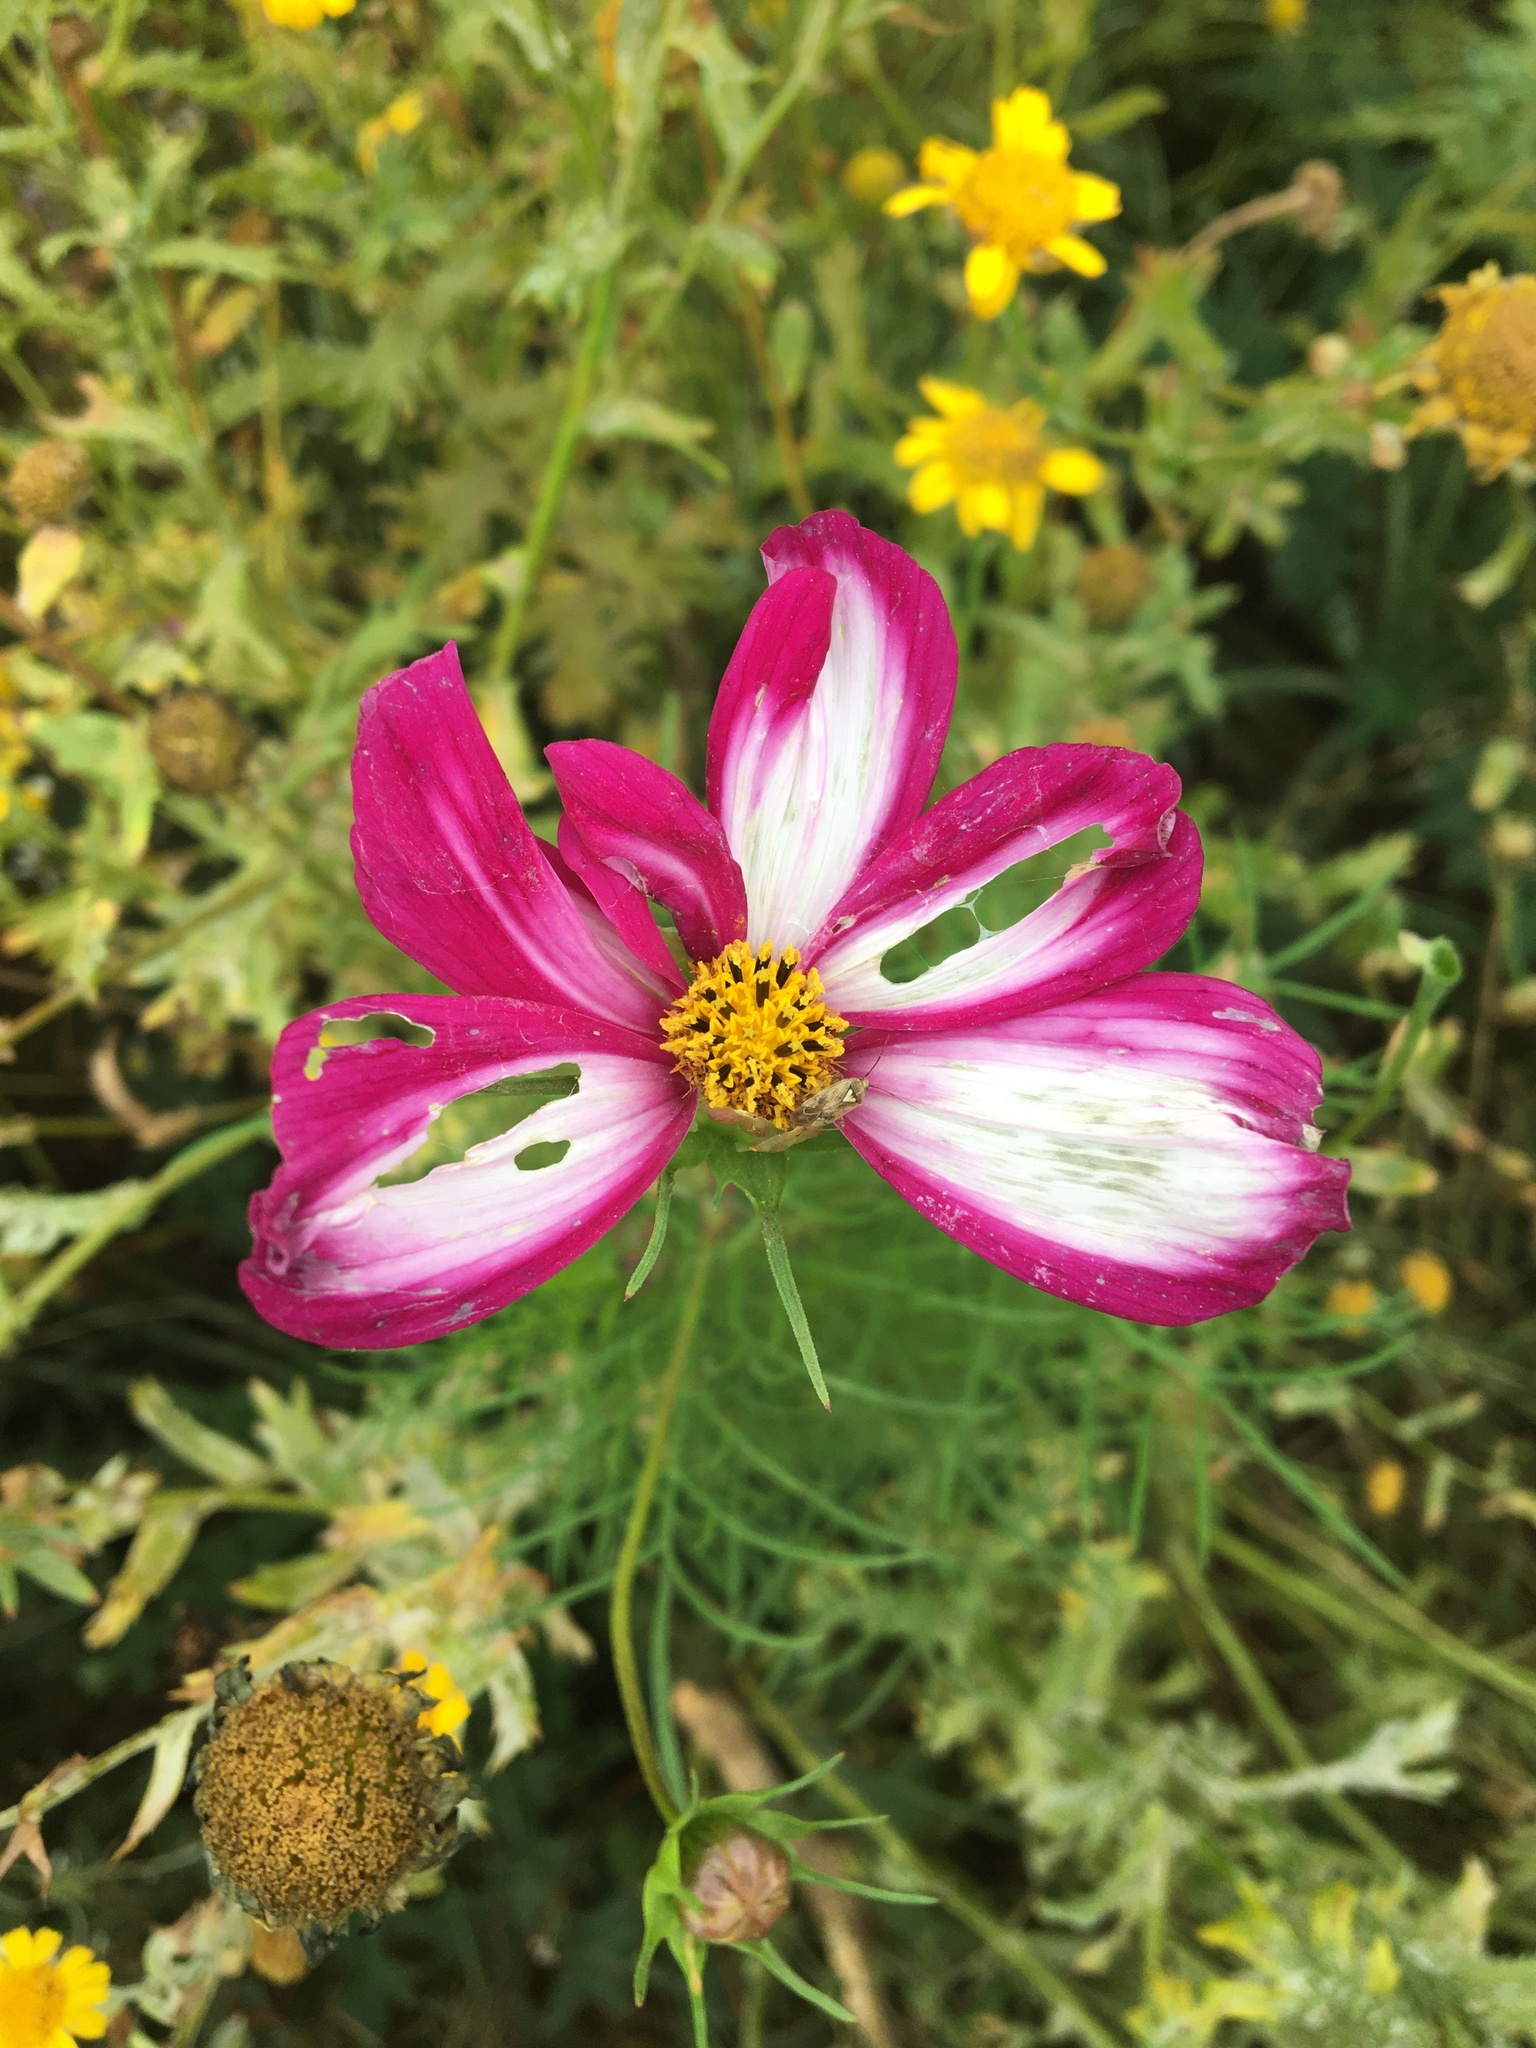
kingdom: Plantae
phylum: Tracheophyta
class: Magnoliopsida
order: Asterales
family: Asteraceae
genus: Cosmos
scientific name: Cosmos bipinnatus
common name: Garden cosmos
